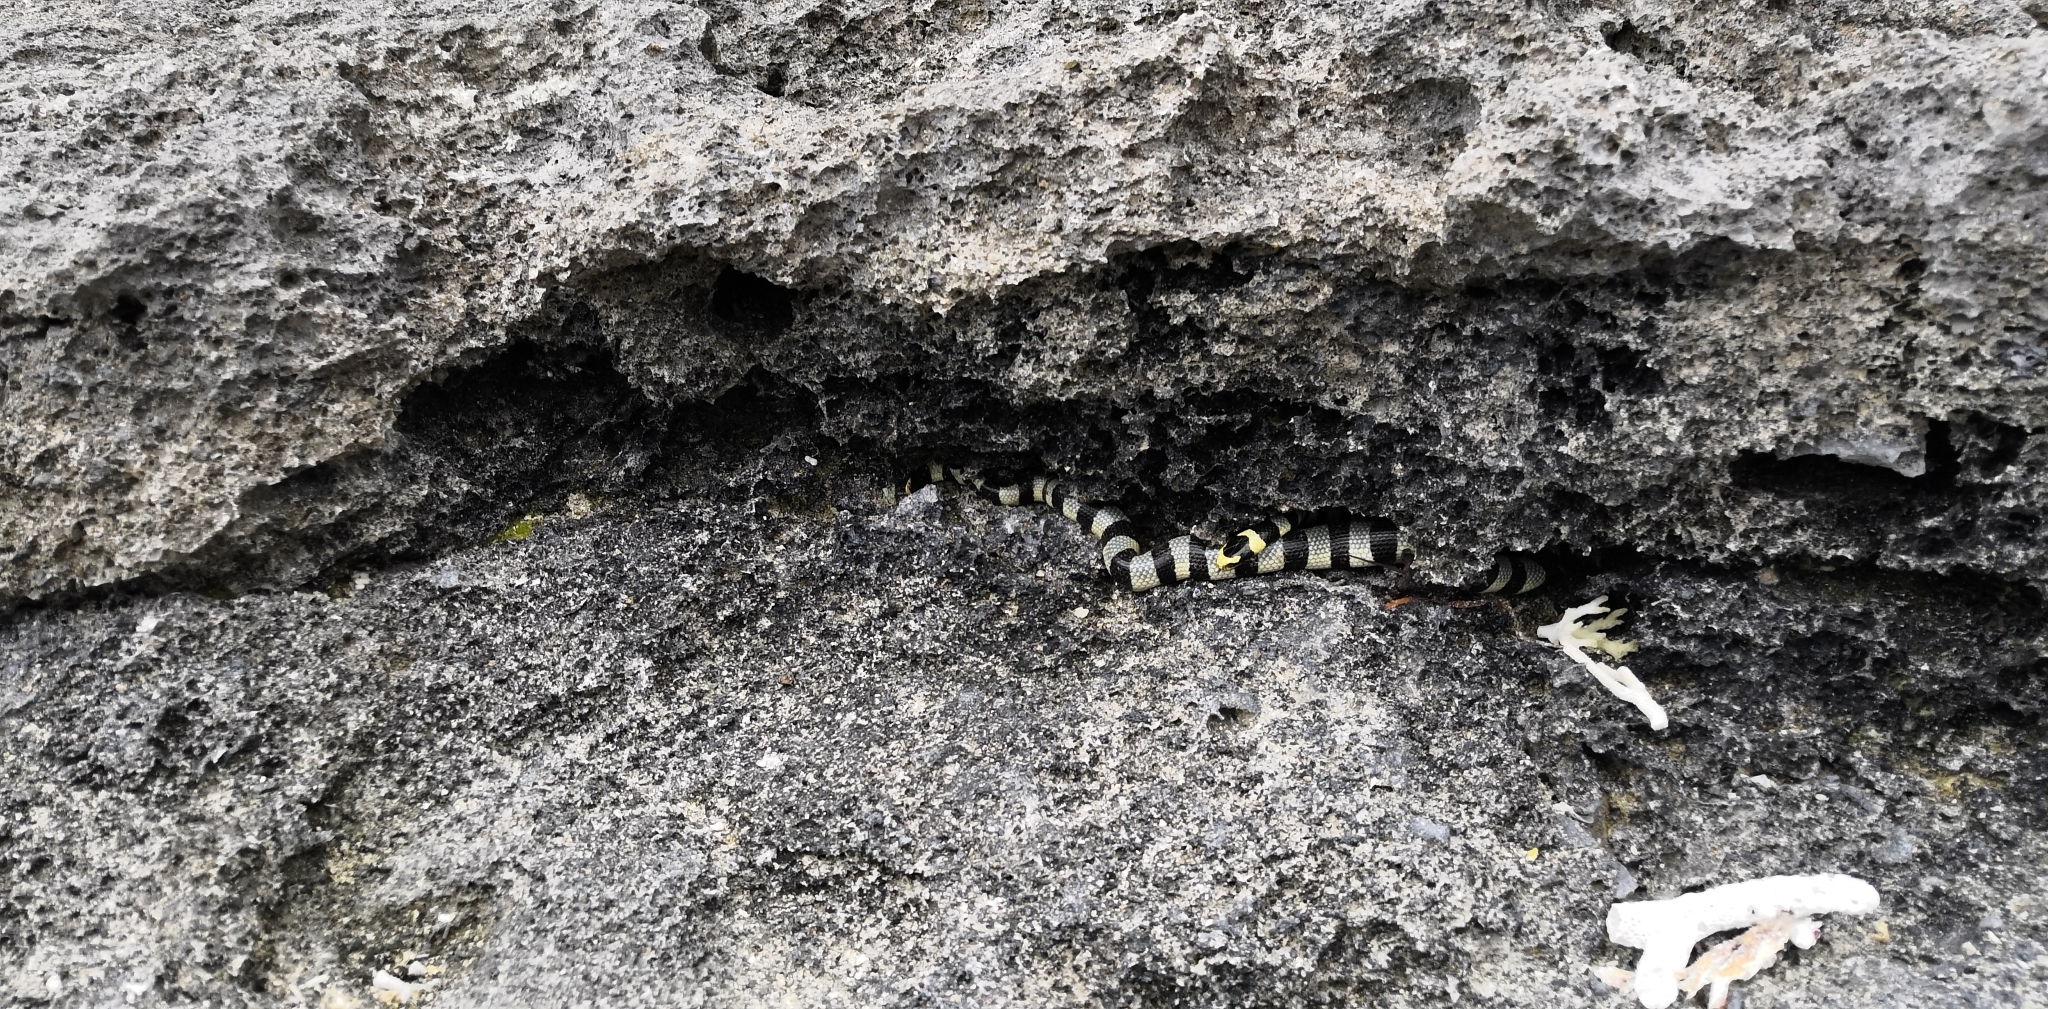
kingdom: Animalia
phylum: Chordata
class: Squamata
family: Elapidae
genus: Laticauda
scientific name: Laticauda colubrina
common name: Yellow-lipped sea krait
